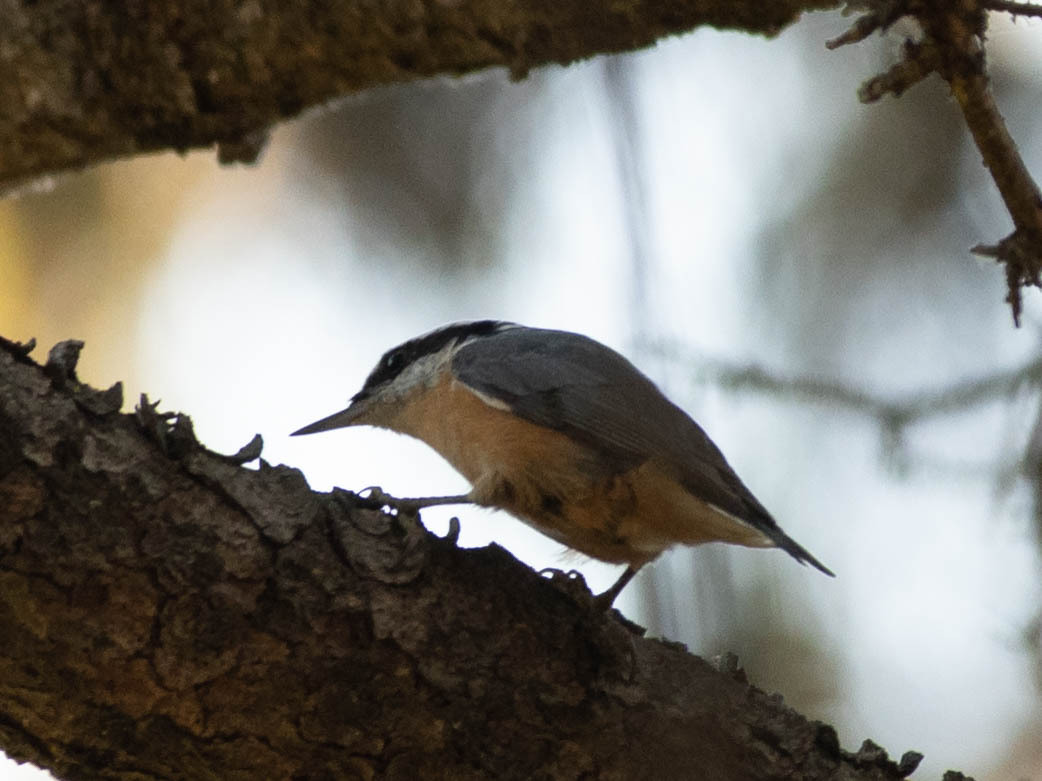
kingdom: Animalia
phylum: Chordata
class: Aves
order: Passeriformes
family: Sittidae
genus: Sitta
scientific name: Sitta canadensis
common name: Red-breasted nuthatch
